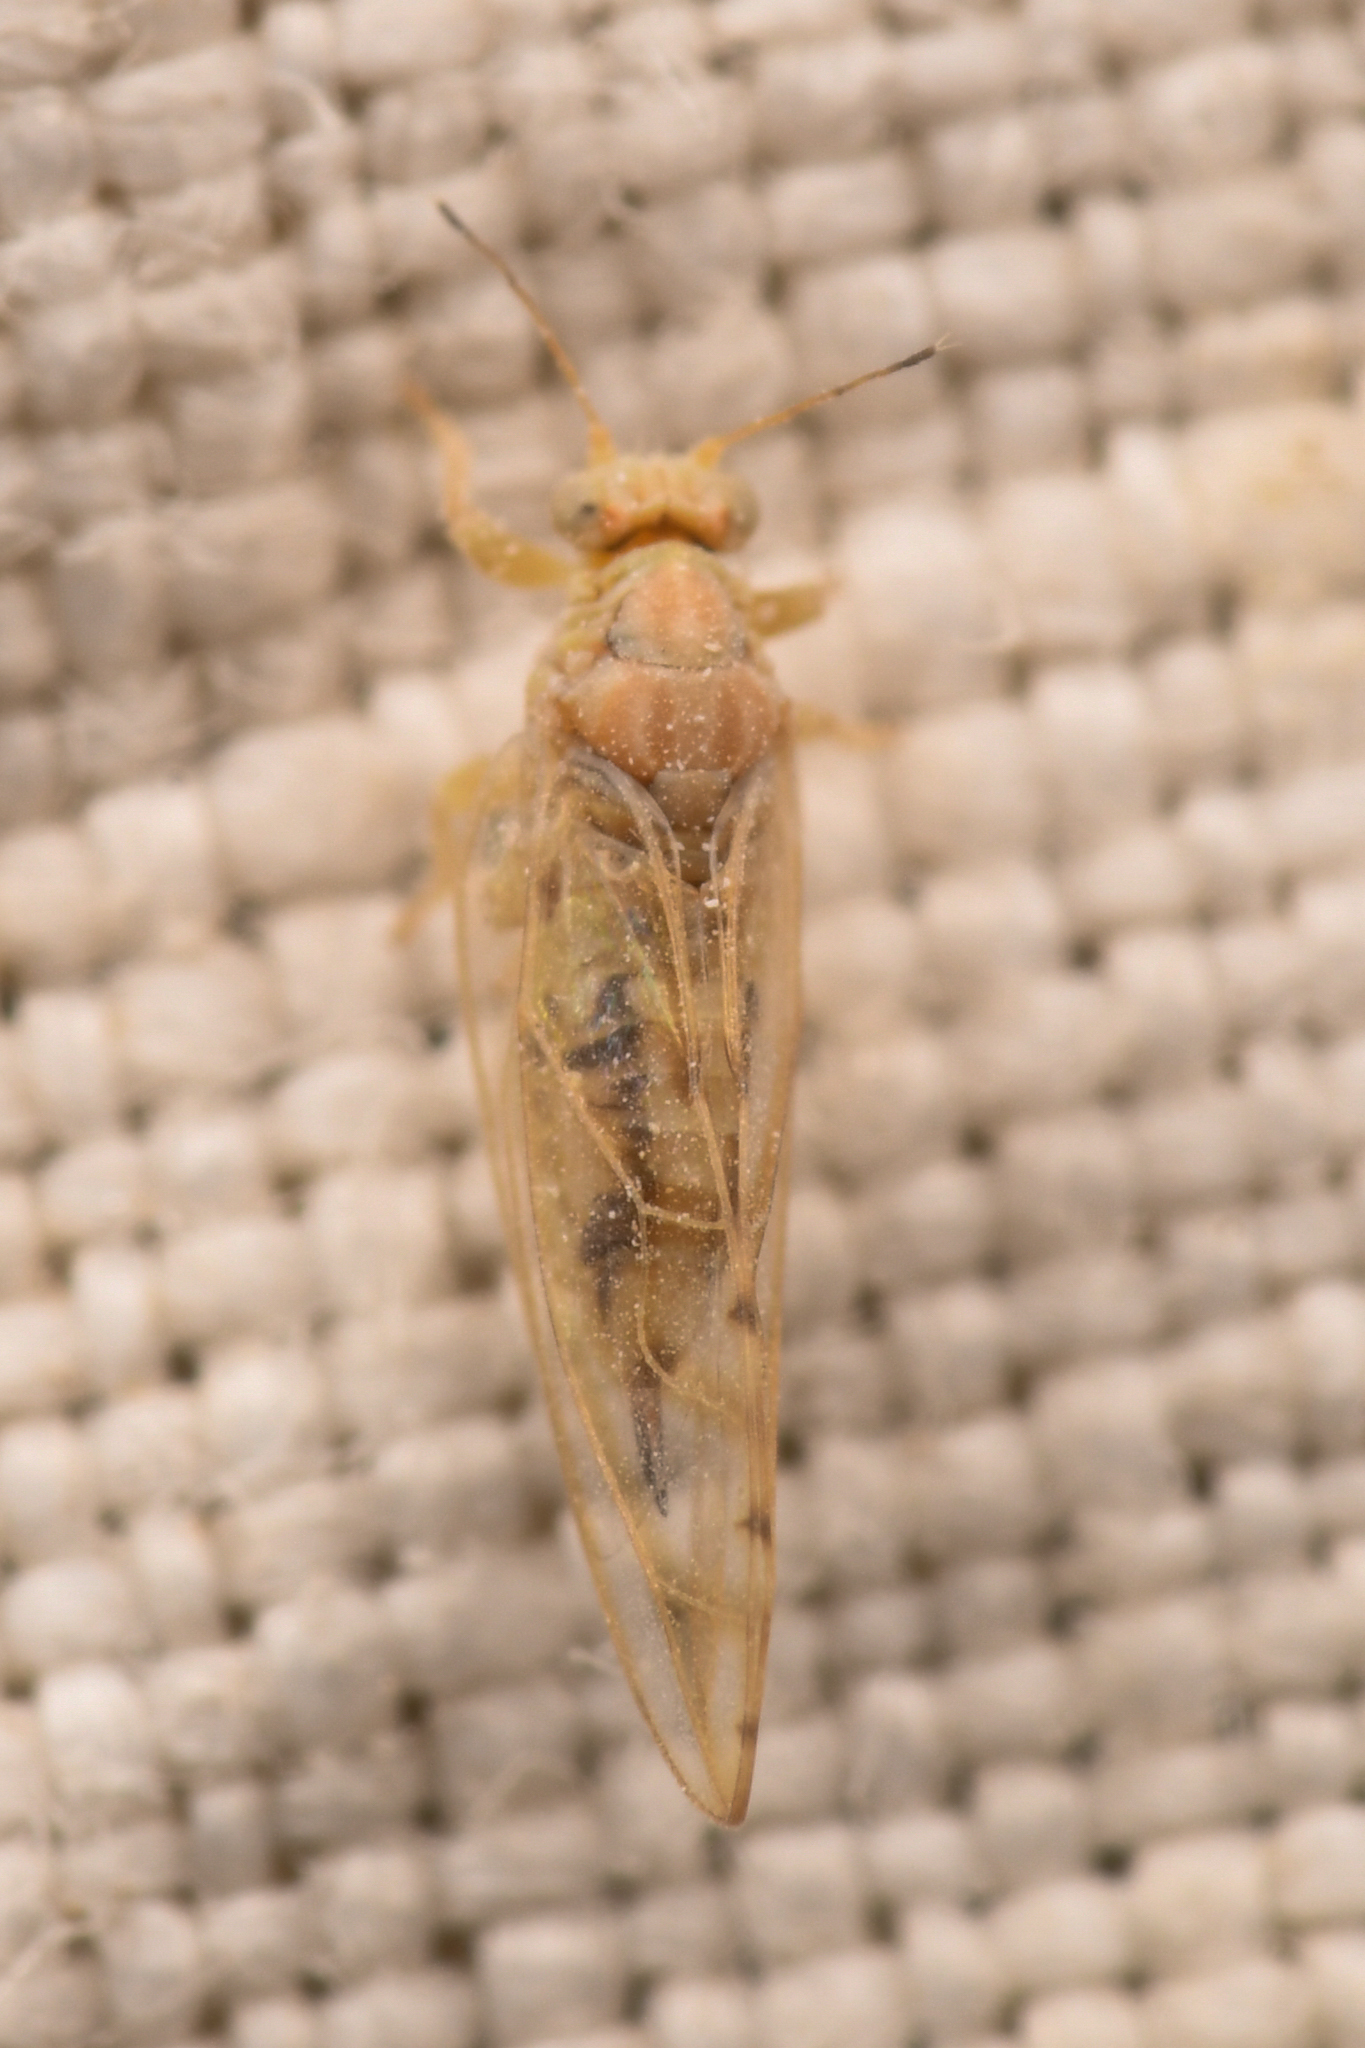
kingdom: Animalia
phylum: Arthropoda
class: Insecta
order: Hemiptera
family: Triozidae
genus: Calinda
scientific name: Calinda longistylus
